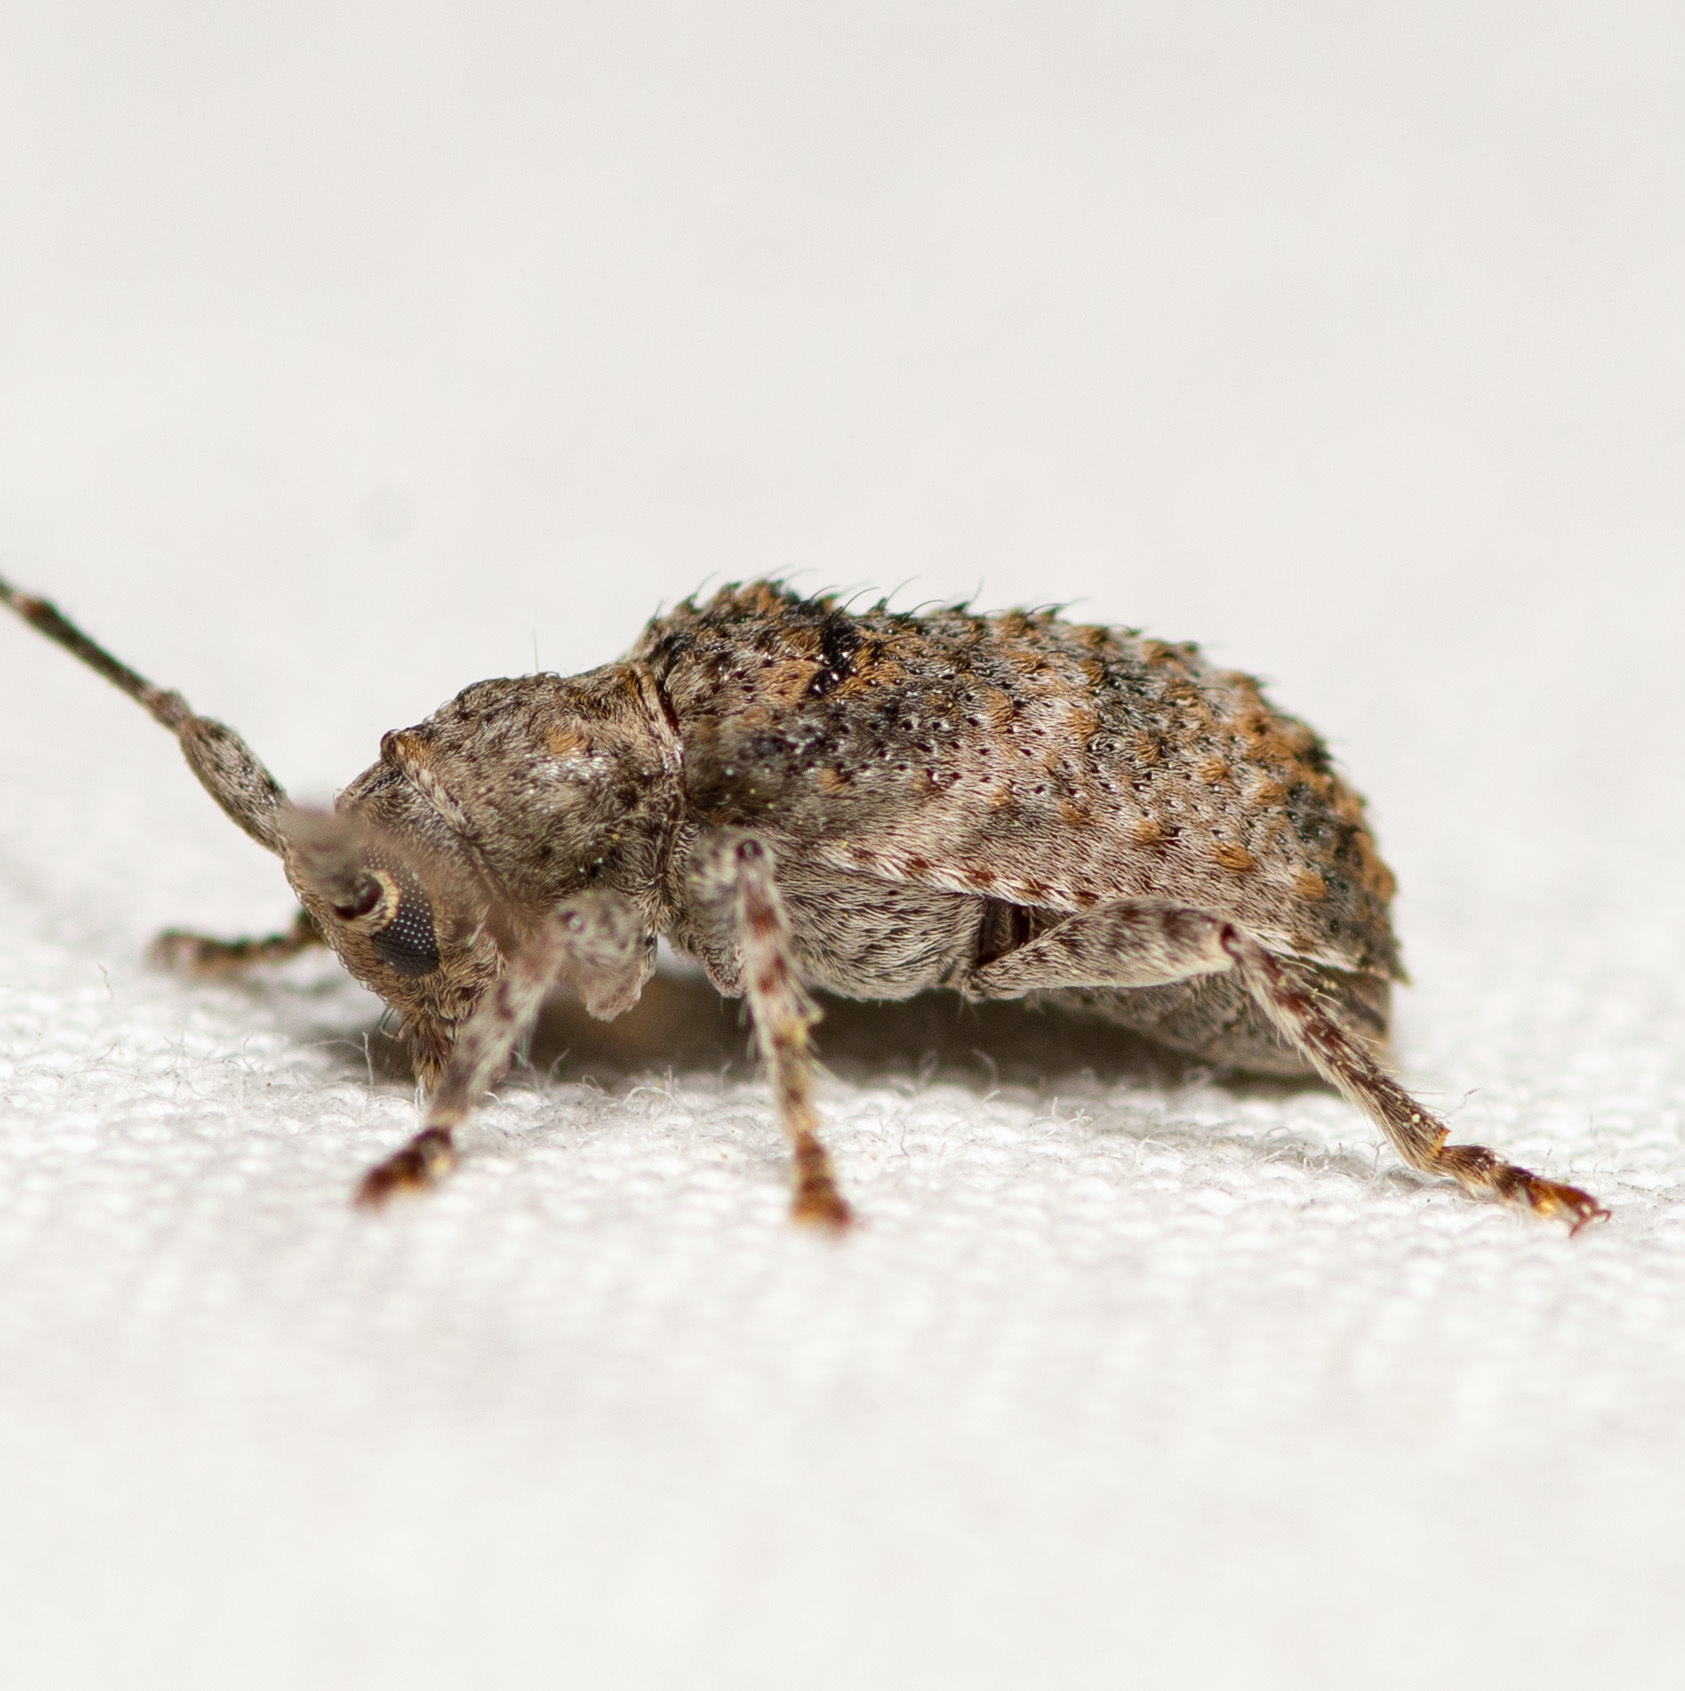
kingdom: Animalia
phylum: Arthropoda
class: Insecta
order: Coleoptera
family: Cerambycidae
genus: Ecyrus
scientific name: Ecyrus dasycerus
